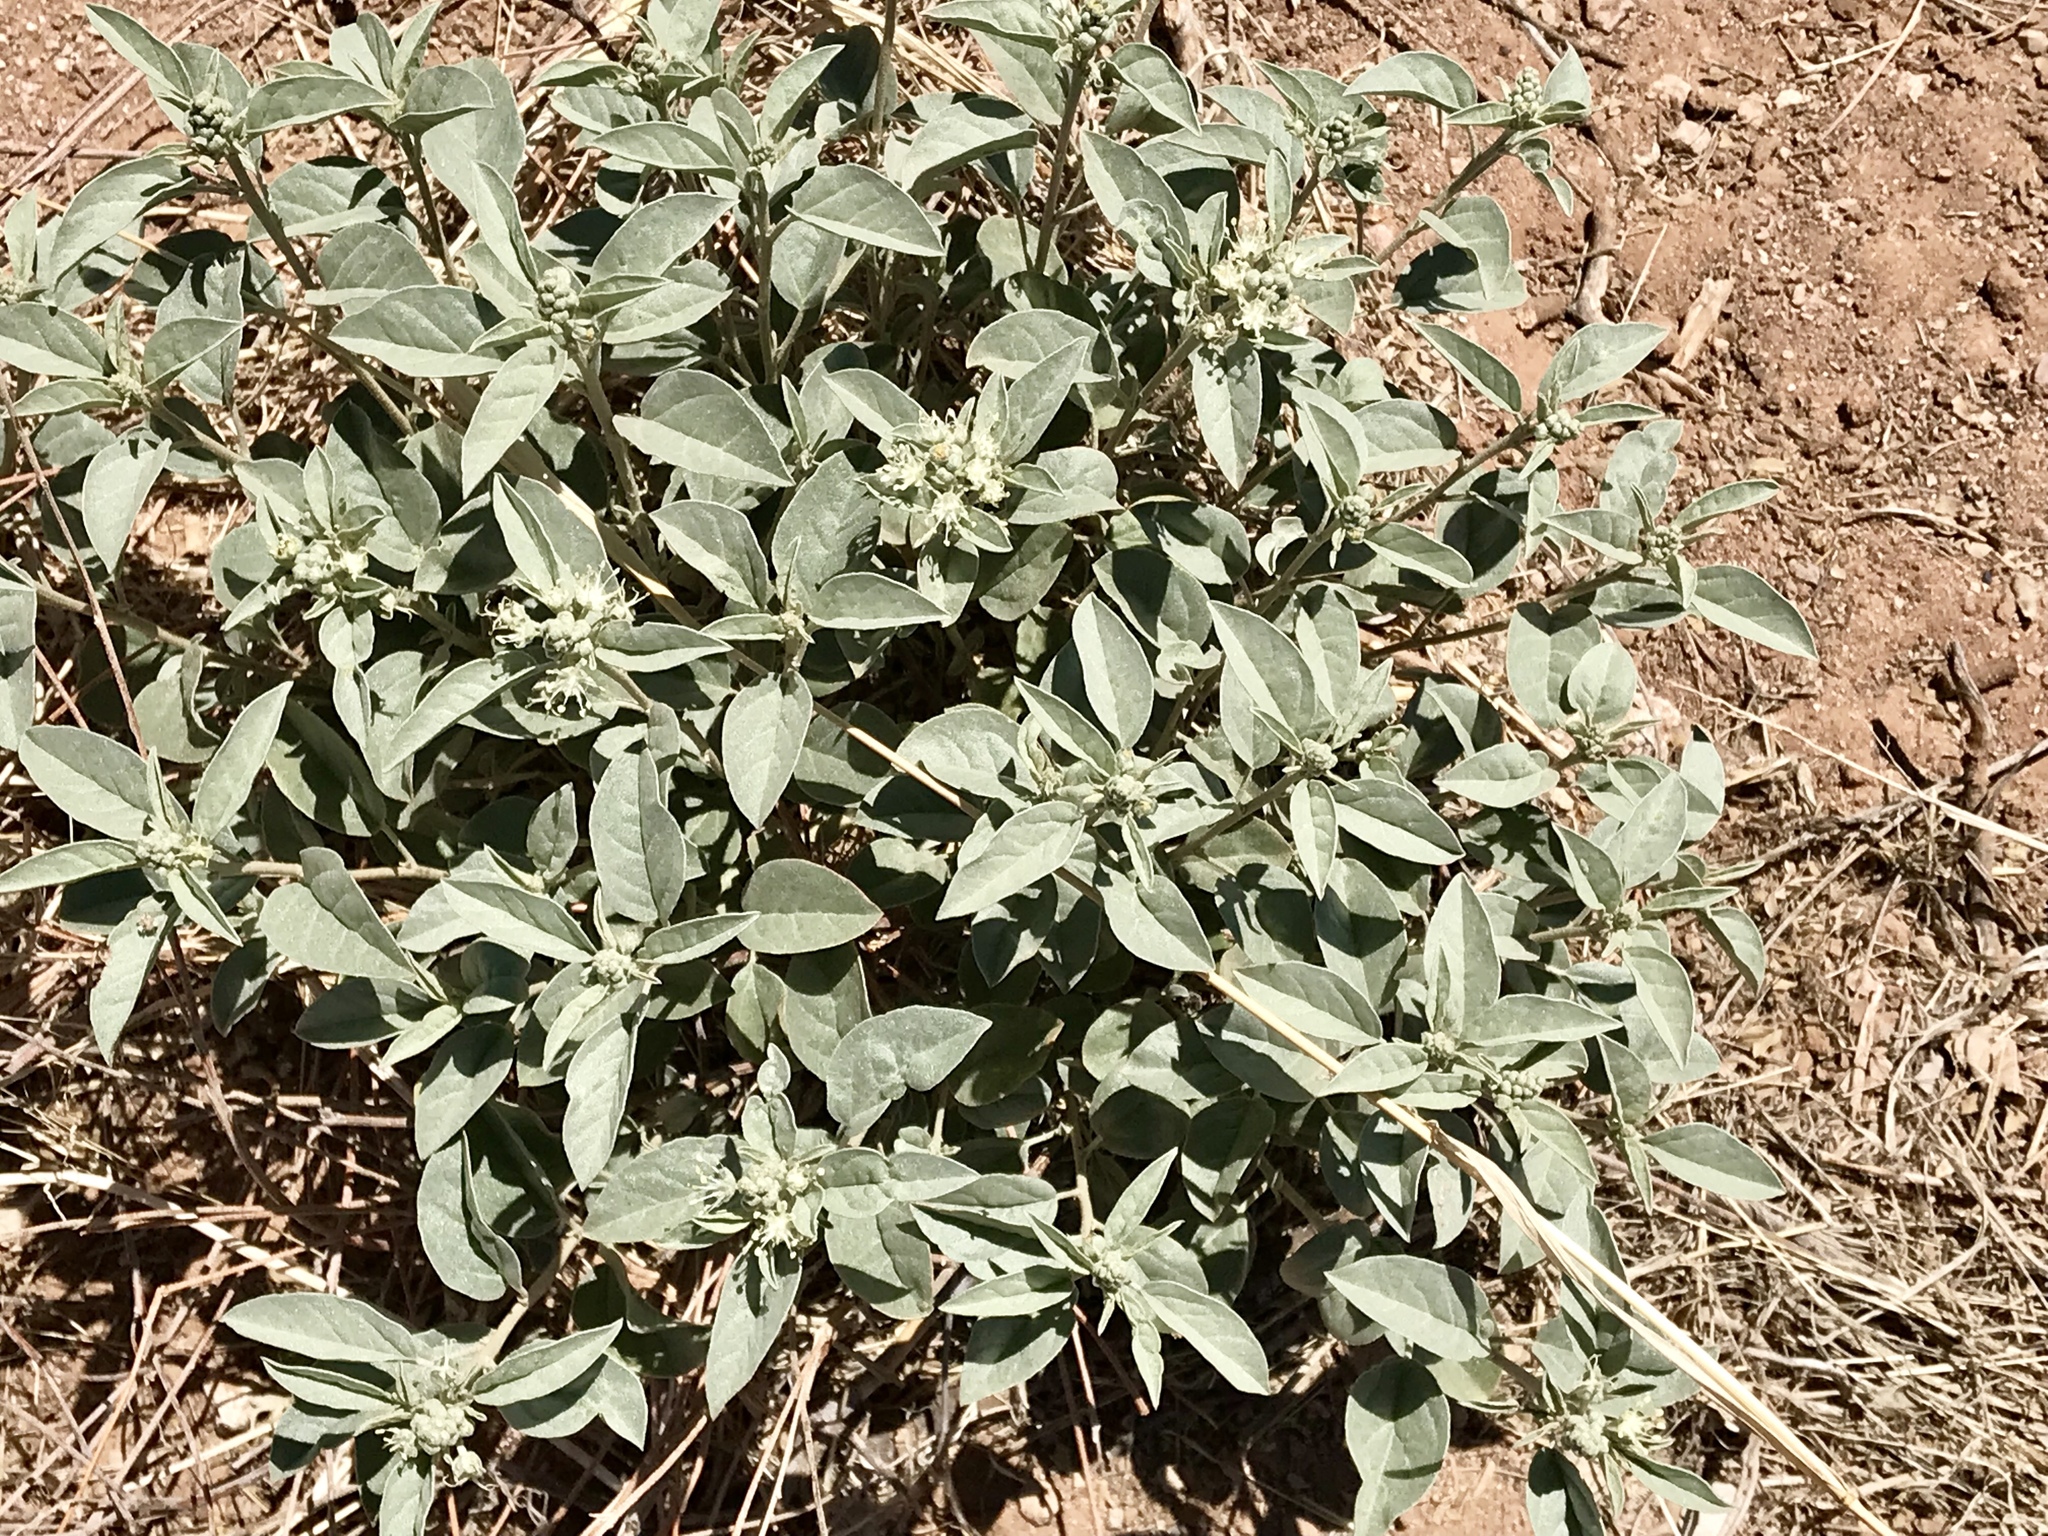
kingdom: Plantae
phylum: Tracheophyta
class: Magnoliopsida
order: Malpighiales
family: Euphorbiaceae
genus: Croton
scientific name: Croton pottsii
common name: Leatherweed
